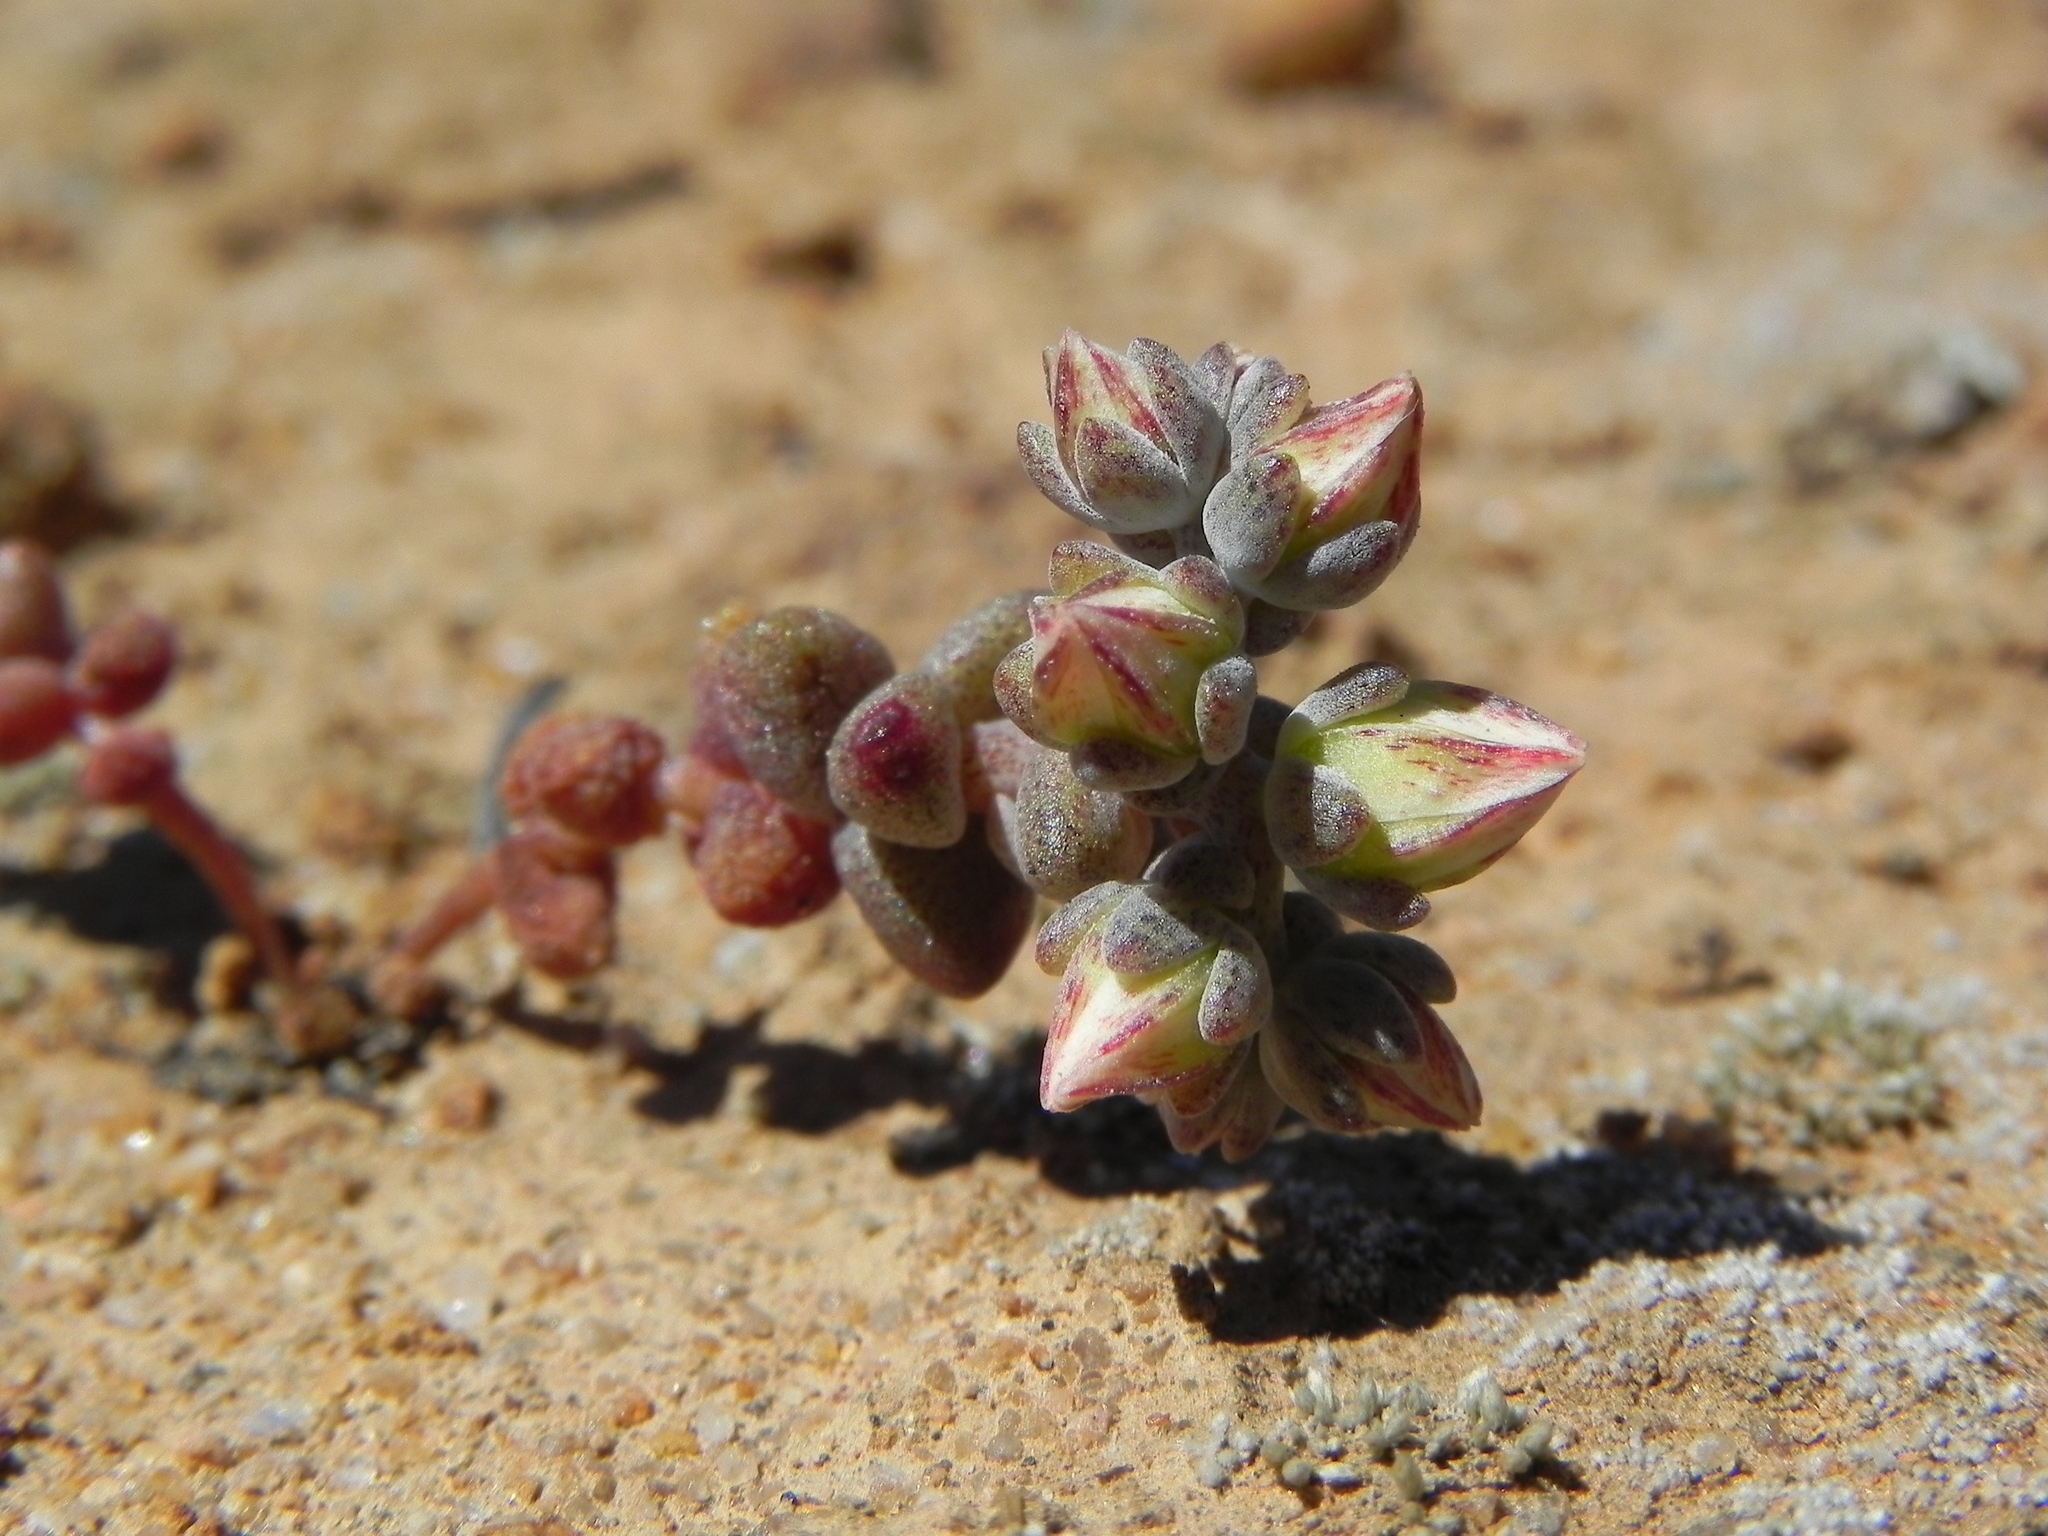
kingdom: Plantae
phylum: Tracheophyta
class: Magnoliopsida
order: Saxifragales
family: Crassulaceae
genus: Dudleya
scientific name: Dudleya blochmaniae
